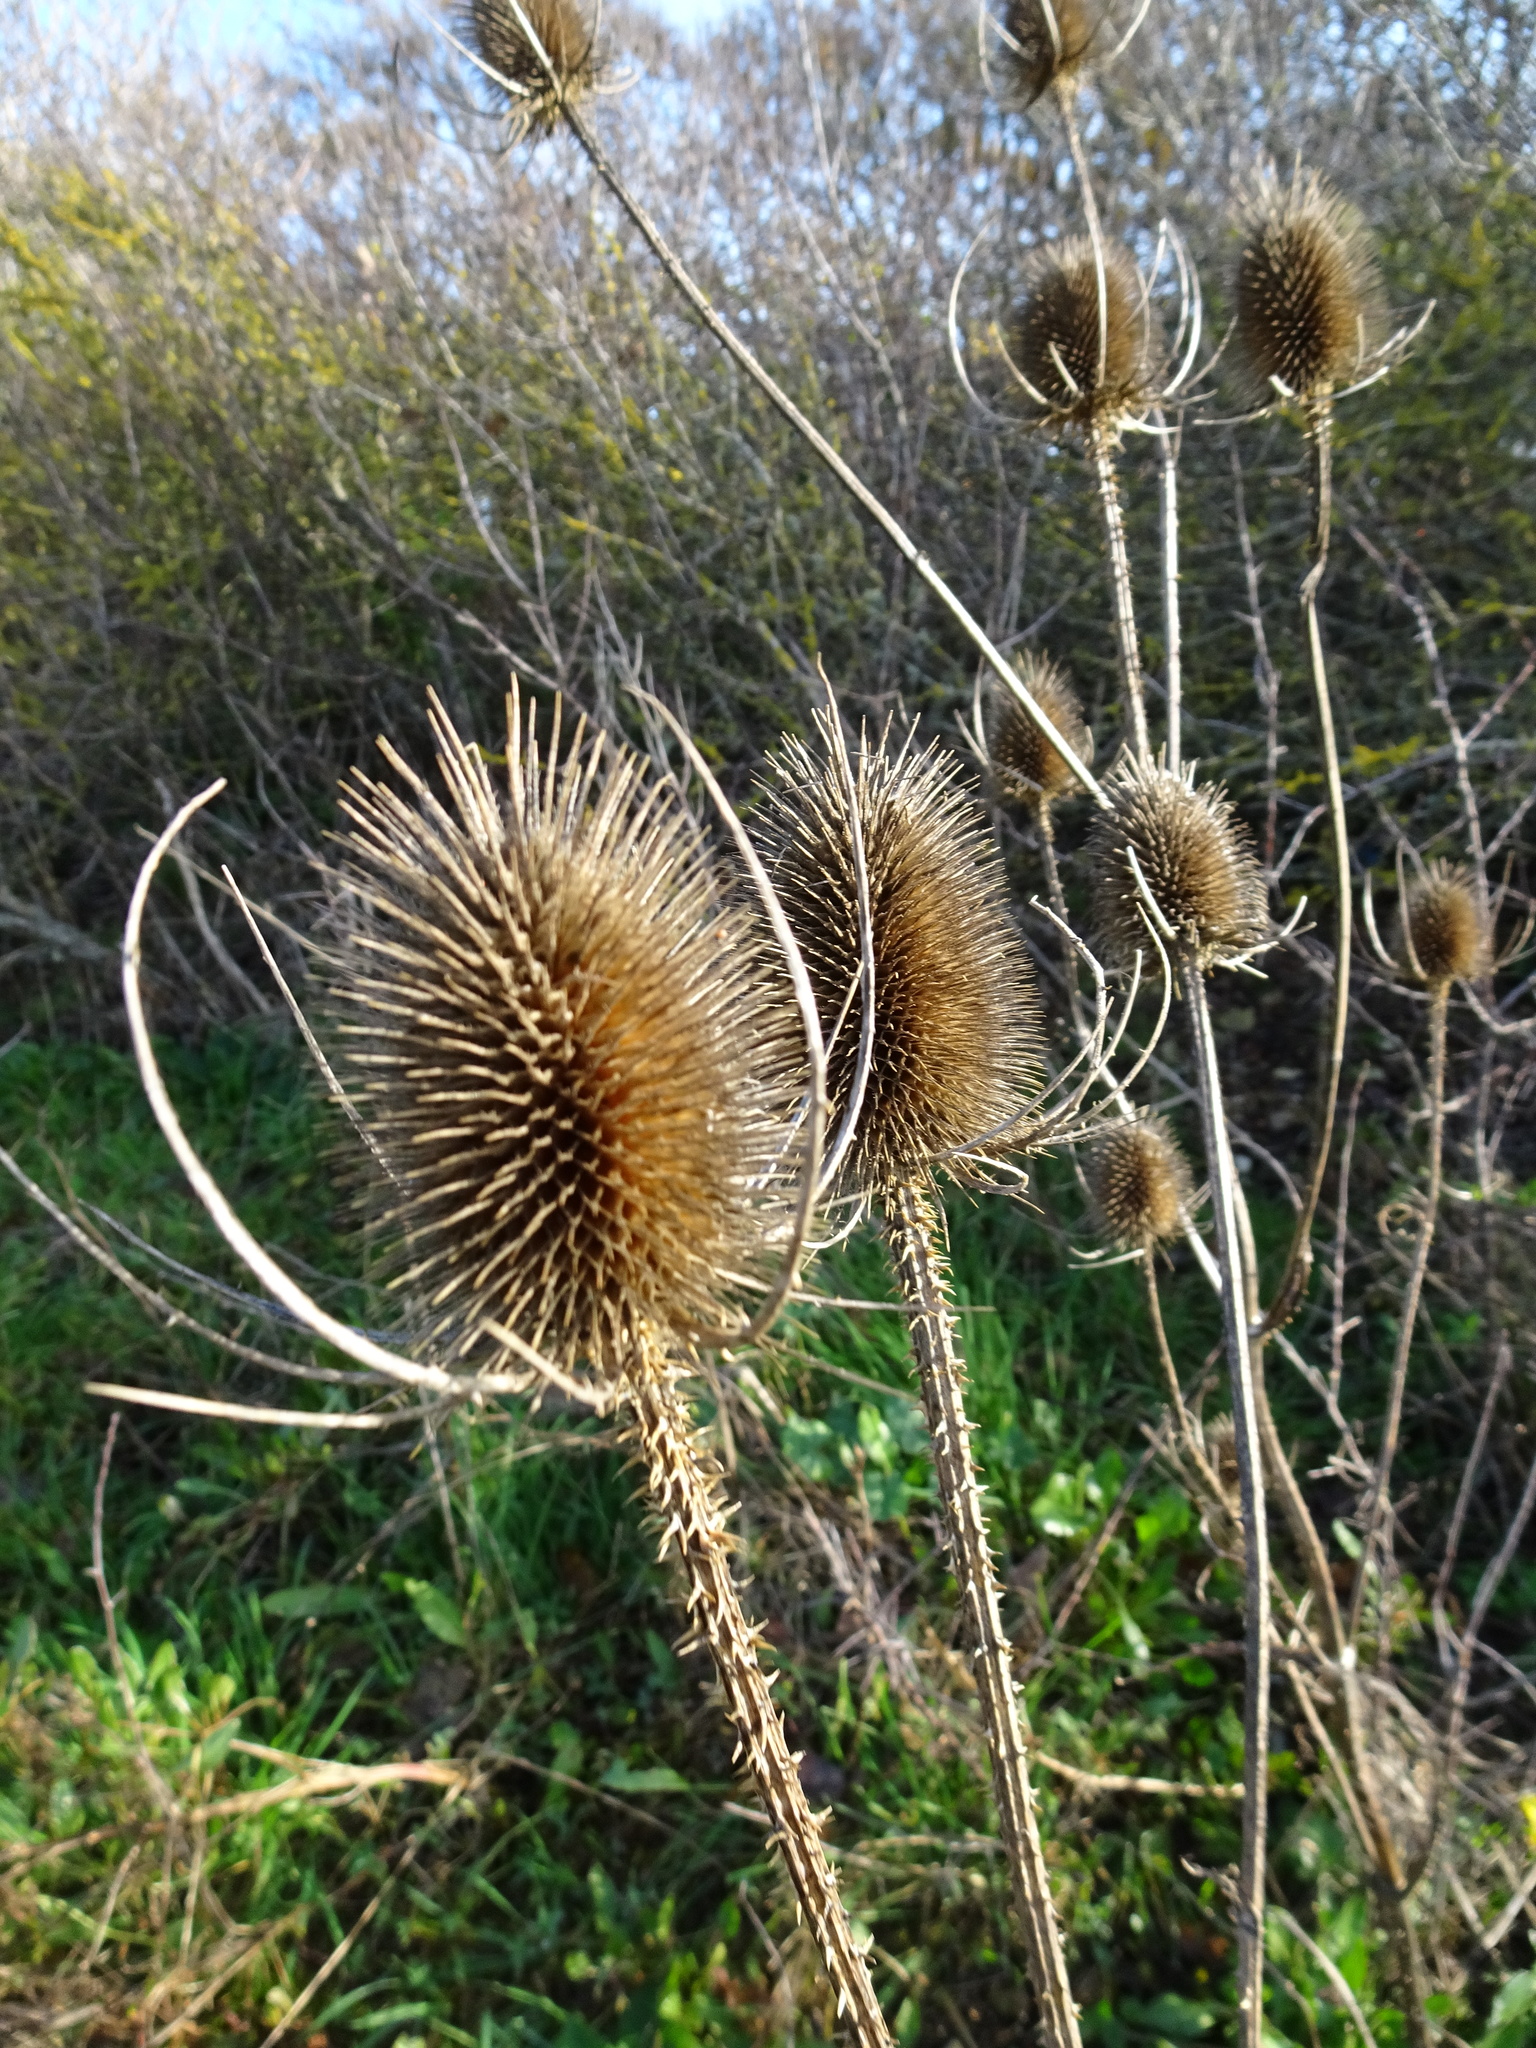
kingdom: Plantae
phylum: Tracheophyta
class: Magnoliopsida
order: Dipsacales
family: Caprifoliaceae
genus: Dipsacus
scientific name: Dipsacus fullonum
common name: Teasel
